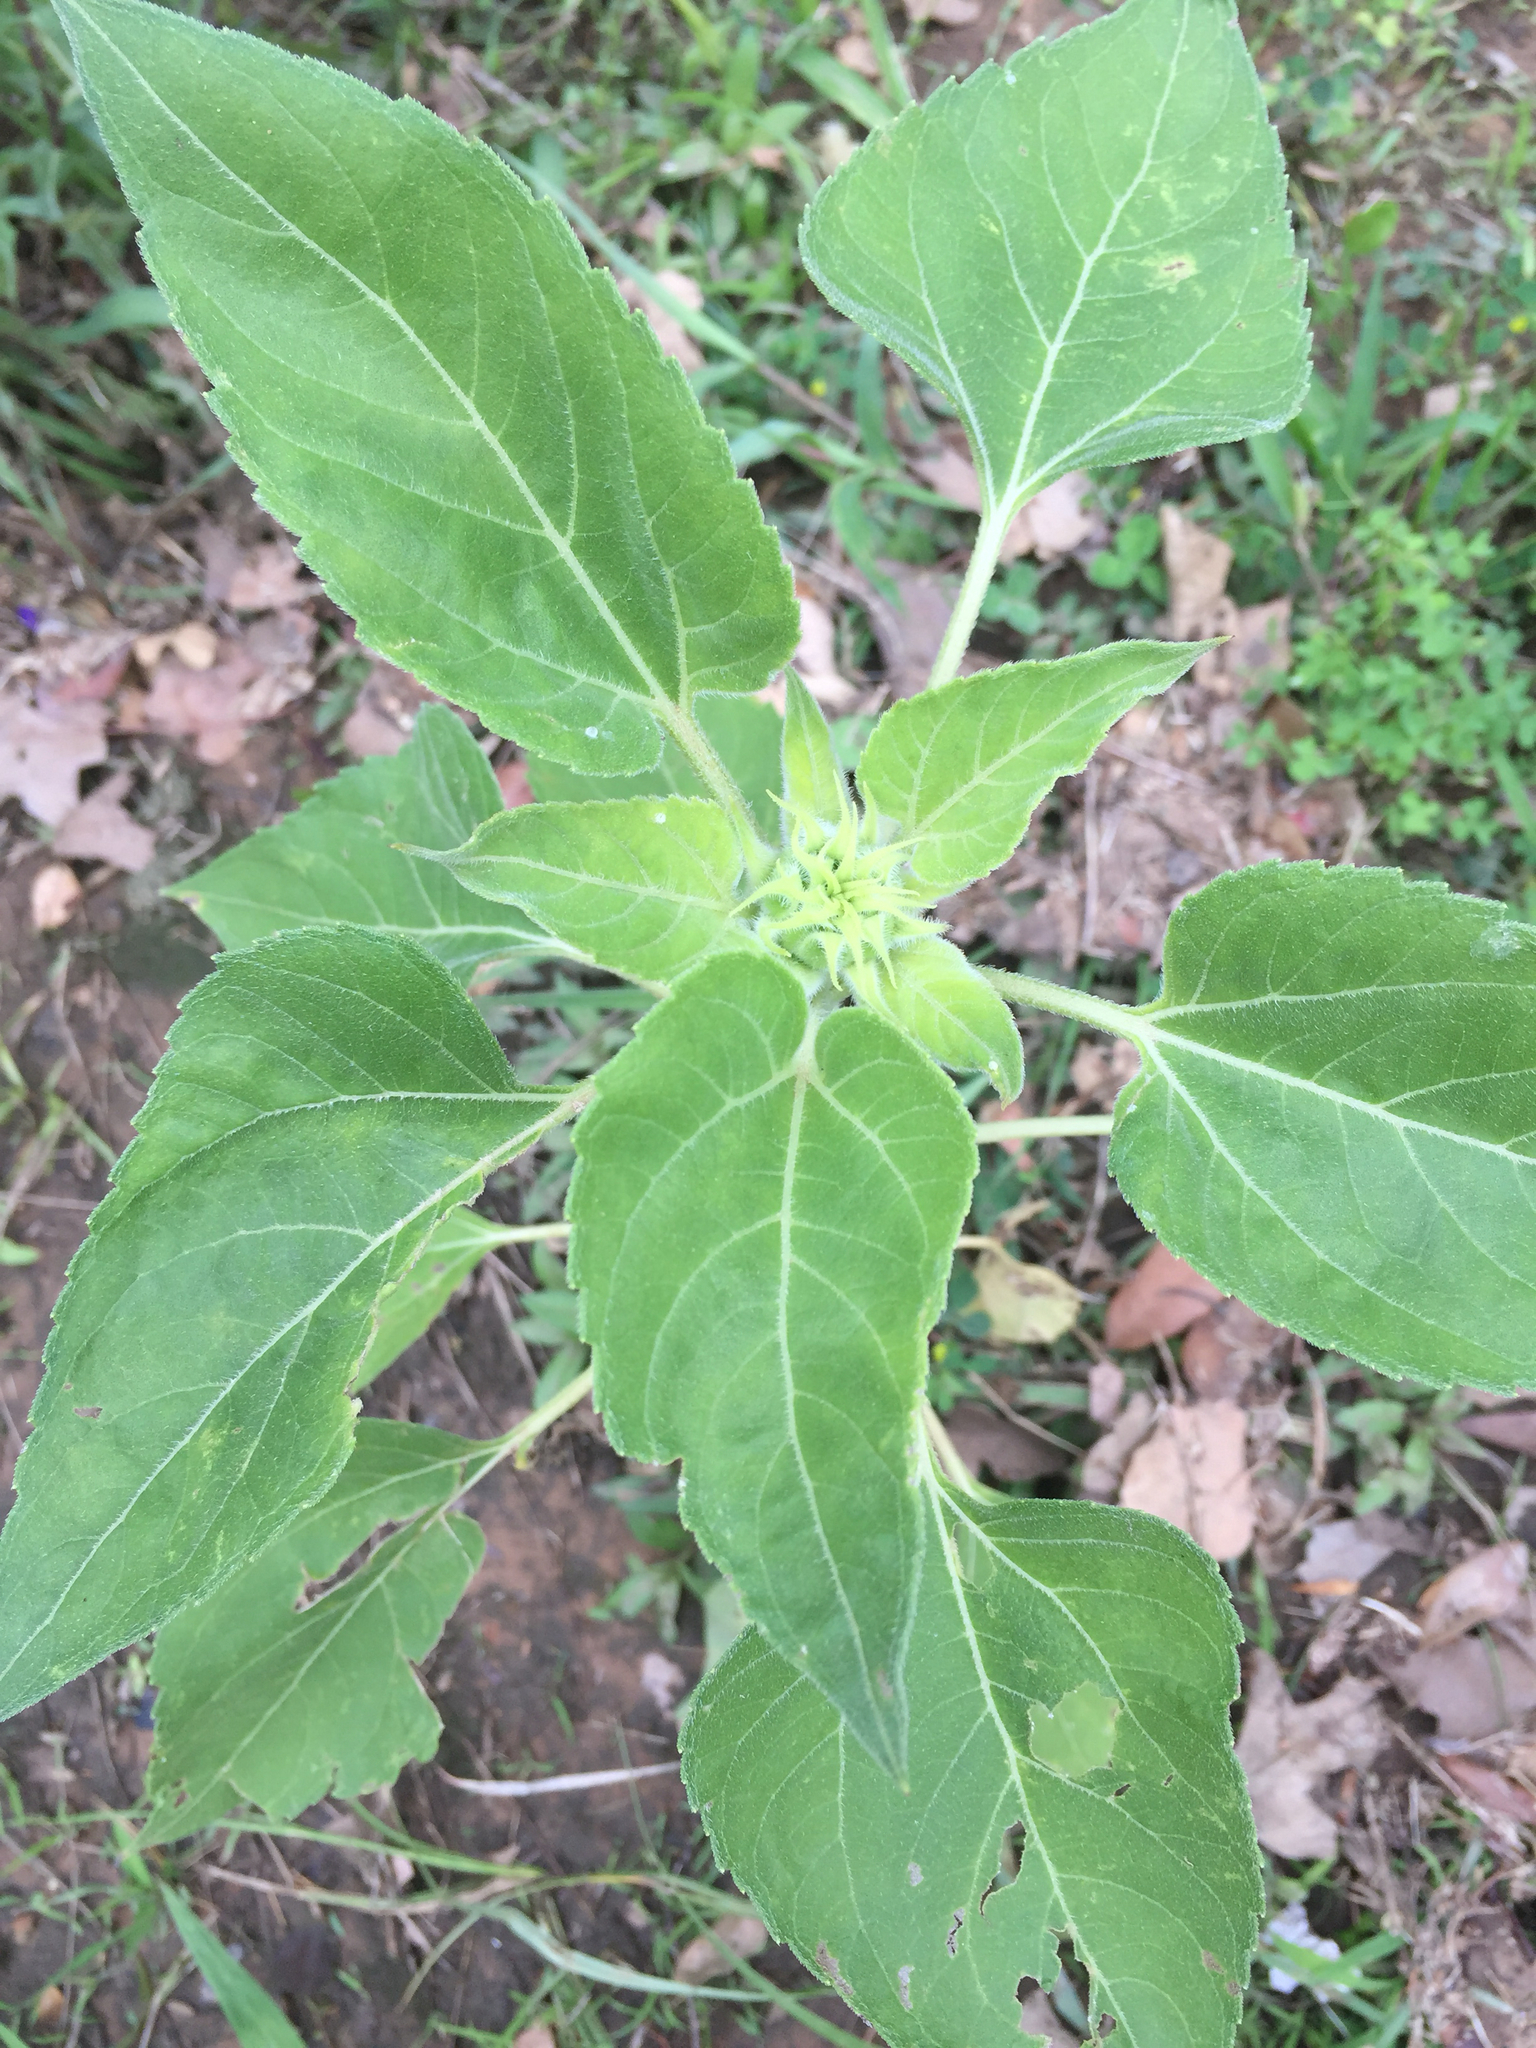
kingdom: Plantae
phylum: Tracheophyta
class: Magnoliopsida
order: Asterales
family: Asteraceae
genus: Helianthus
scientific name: Helianthus annuus
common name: Sunflower
